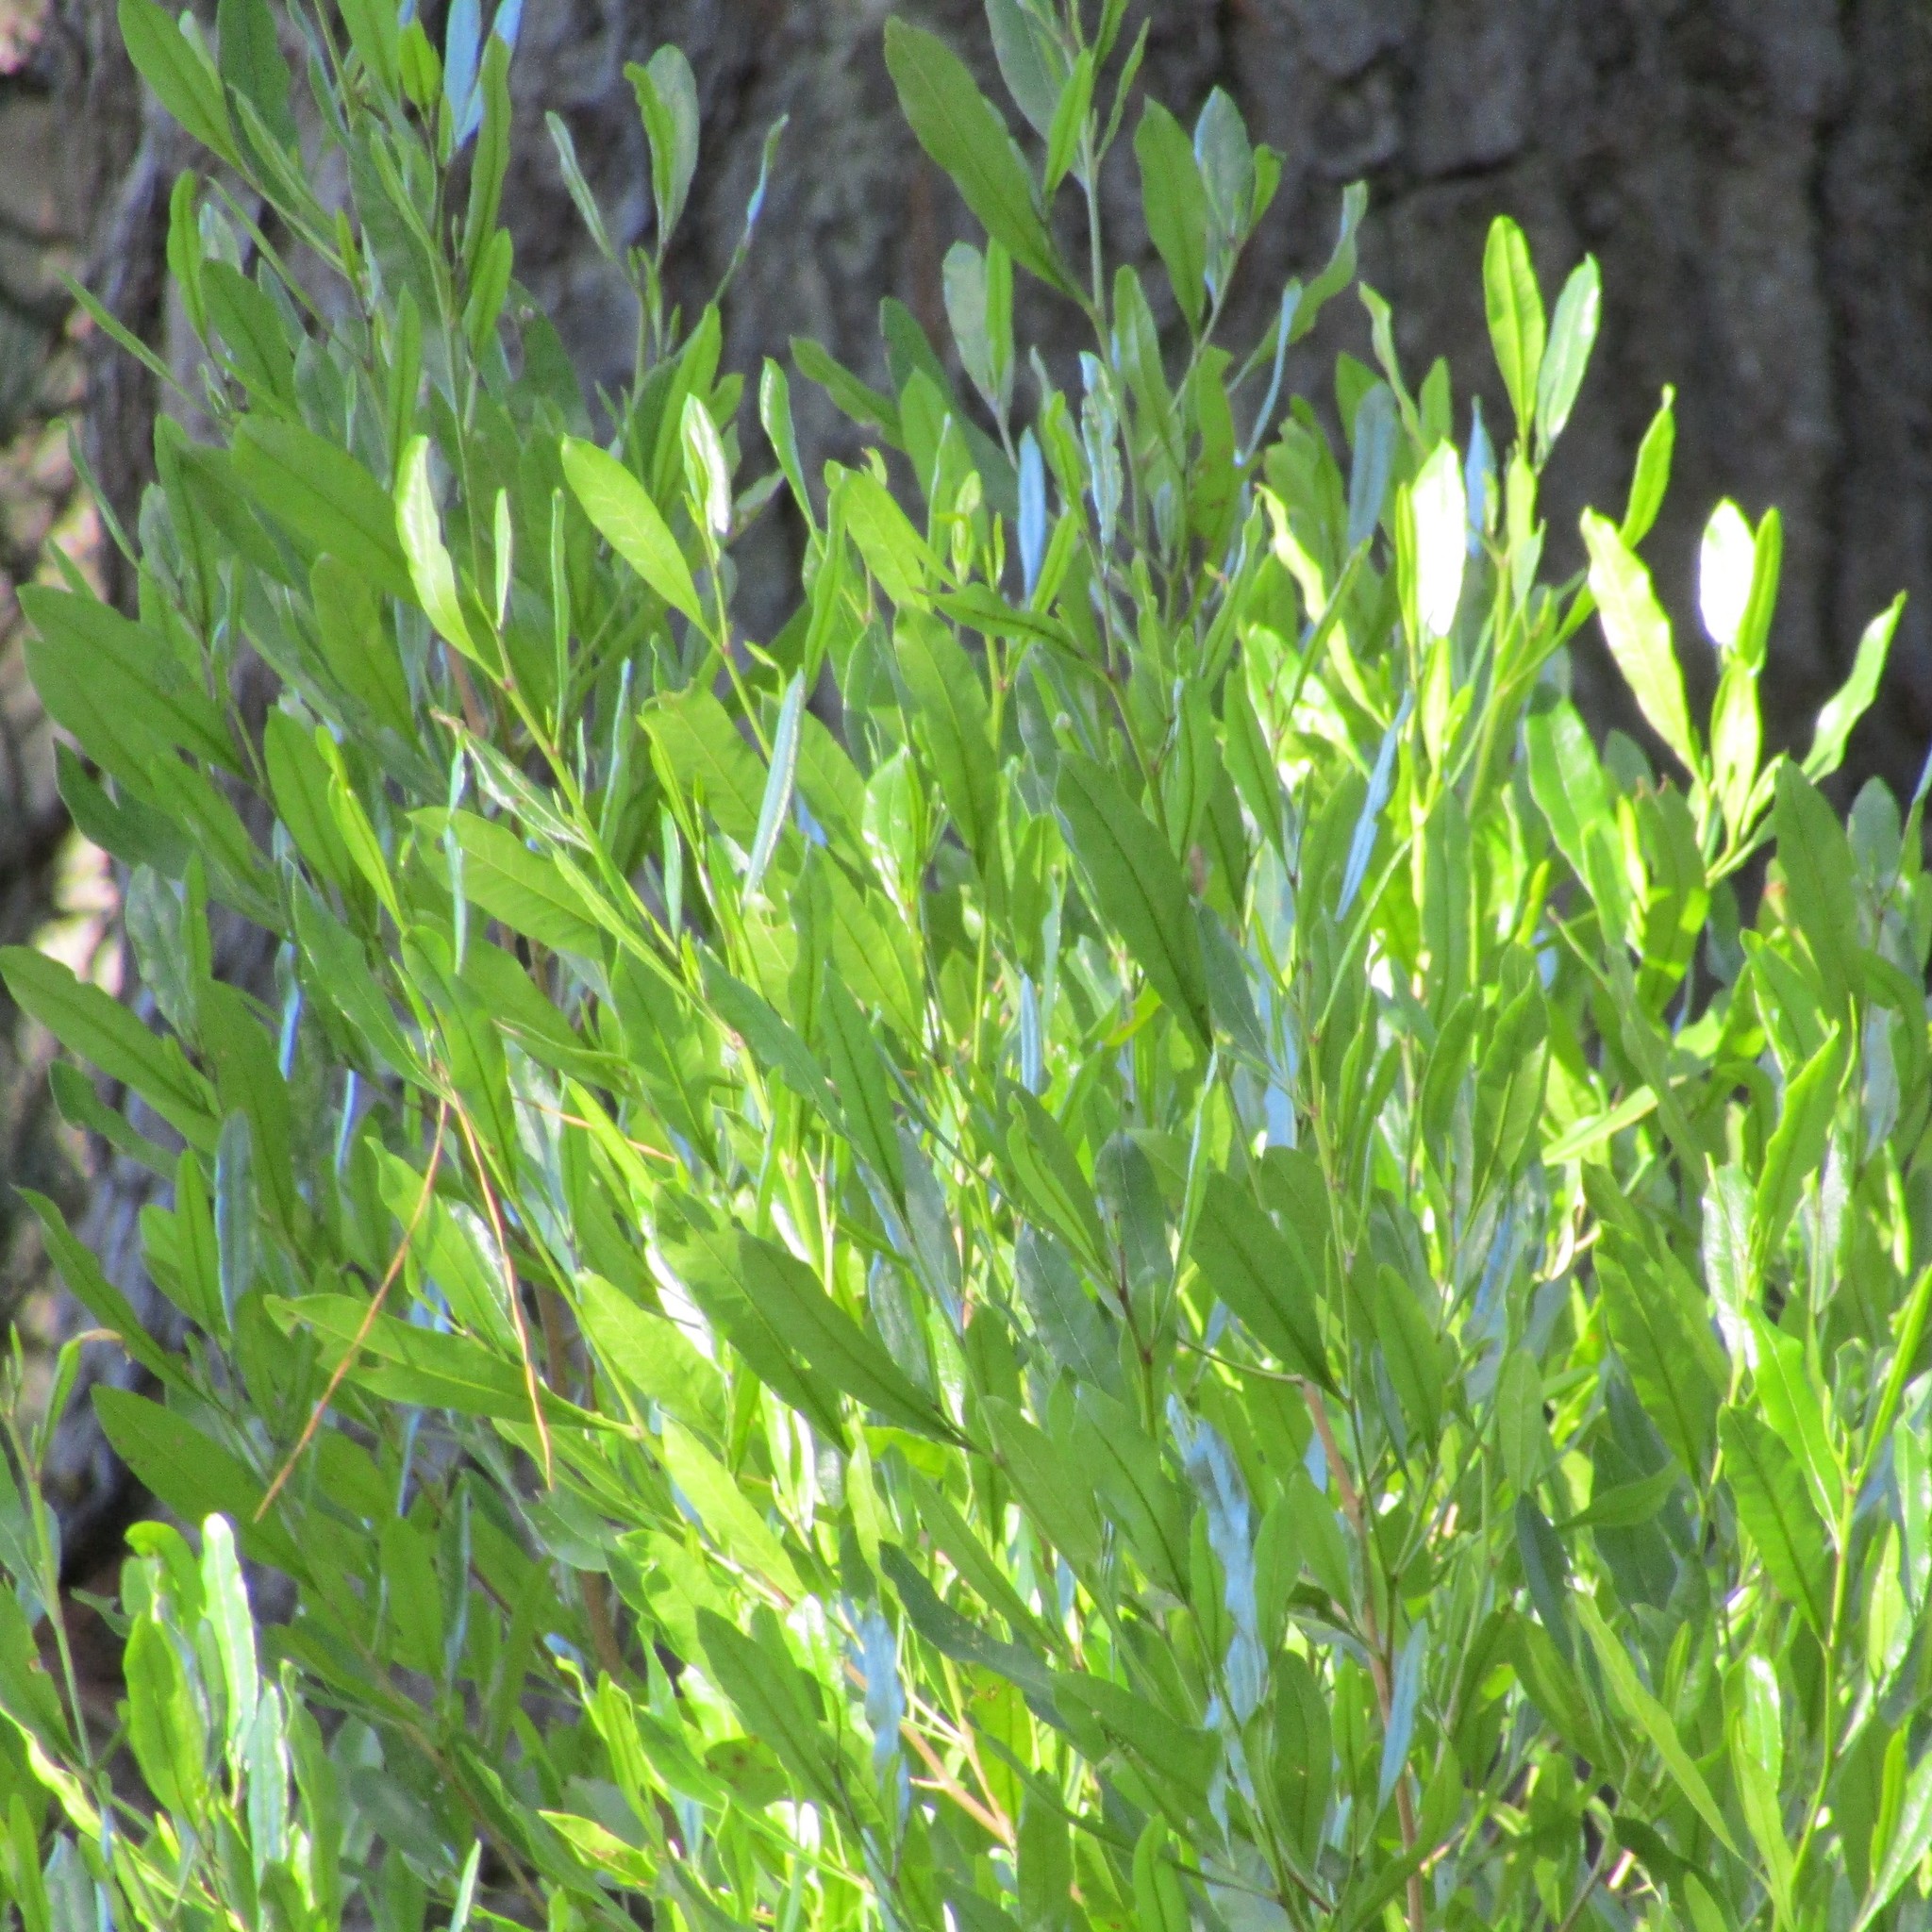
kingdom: Plantae
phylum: Tracheophyta
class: Magnoliopsida
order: Sapindales
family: Sapindaceae
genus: Dodonaea
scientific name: Dodonaea viscosa
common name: Hopbush
